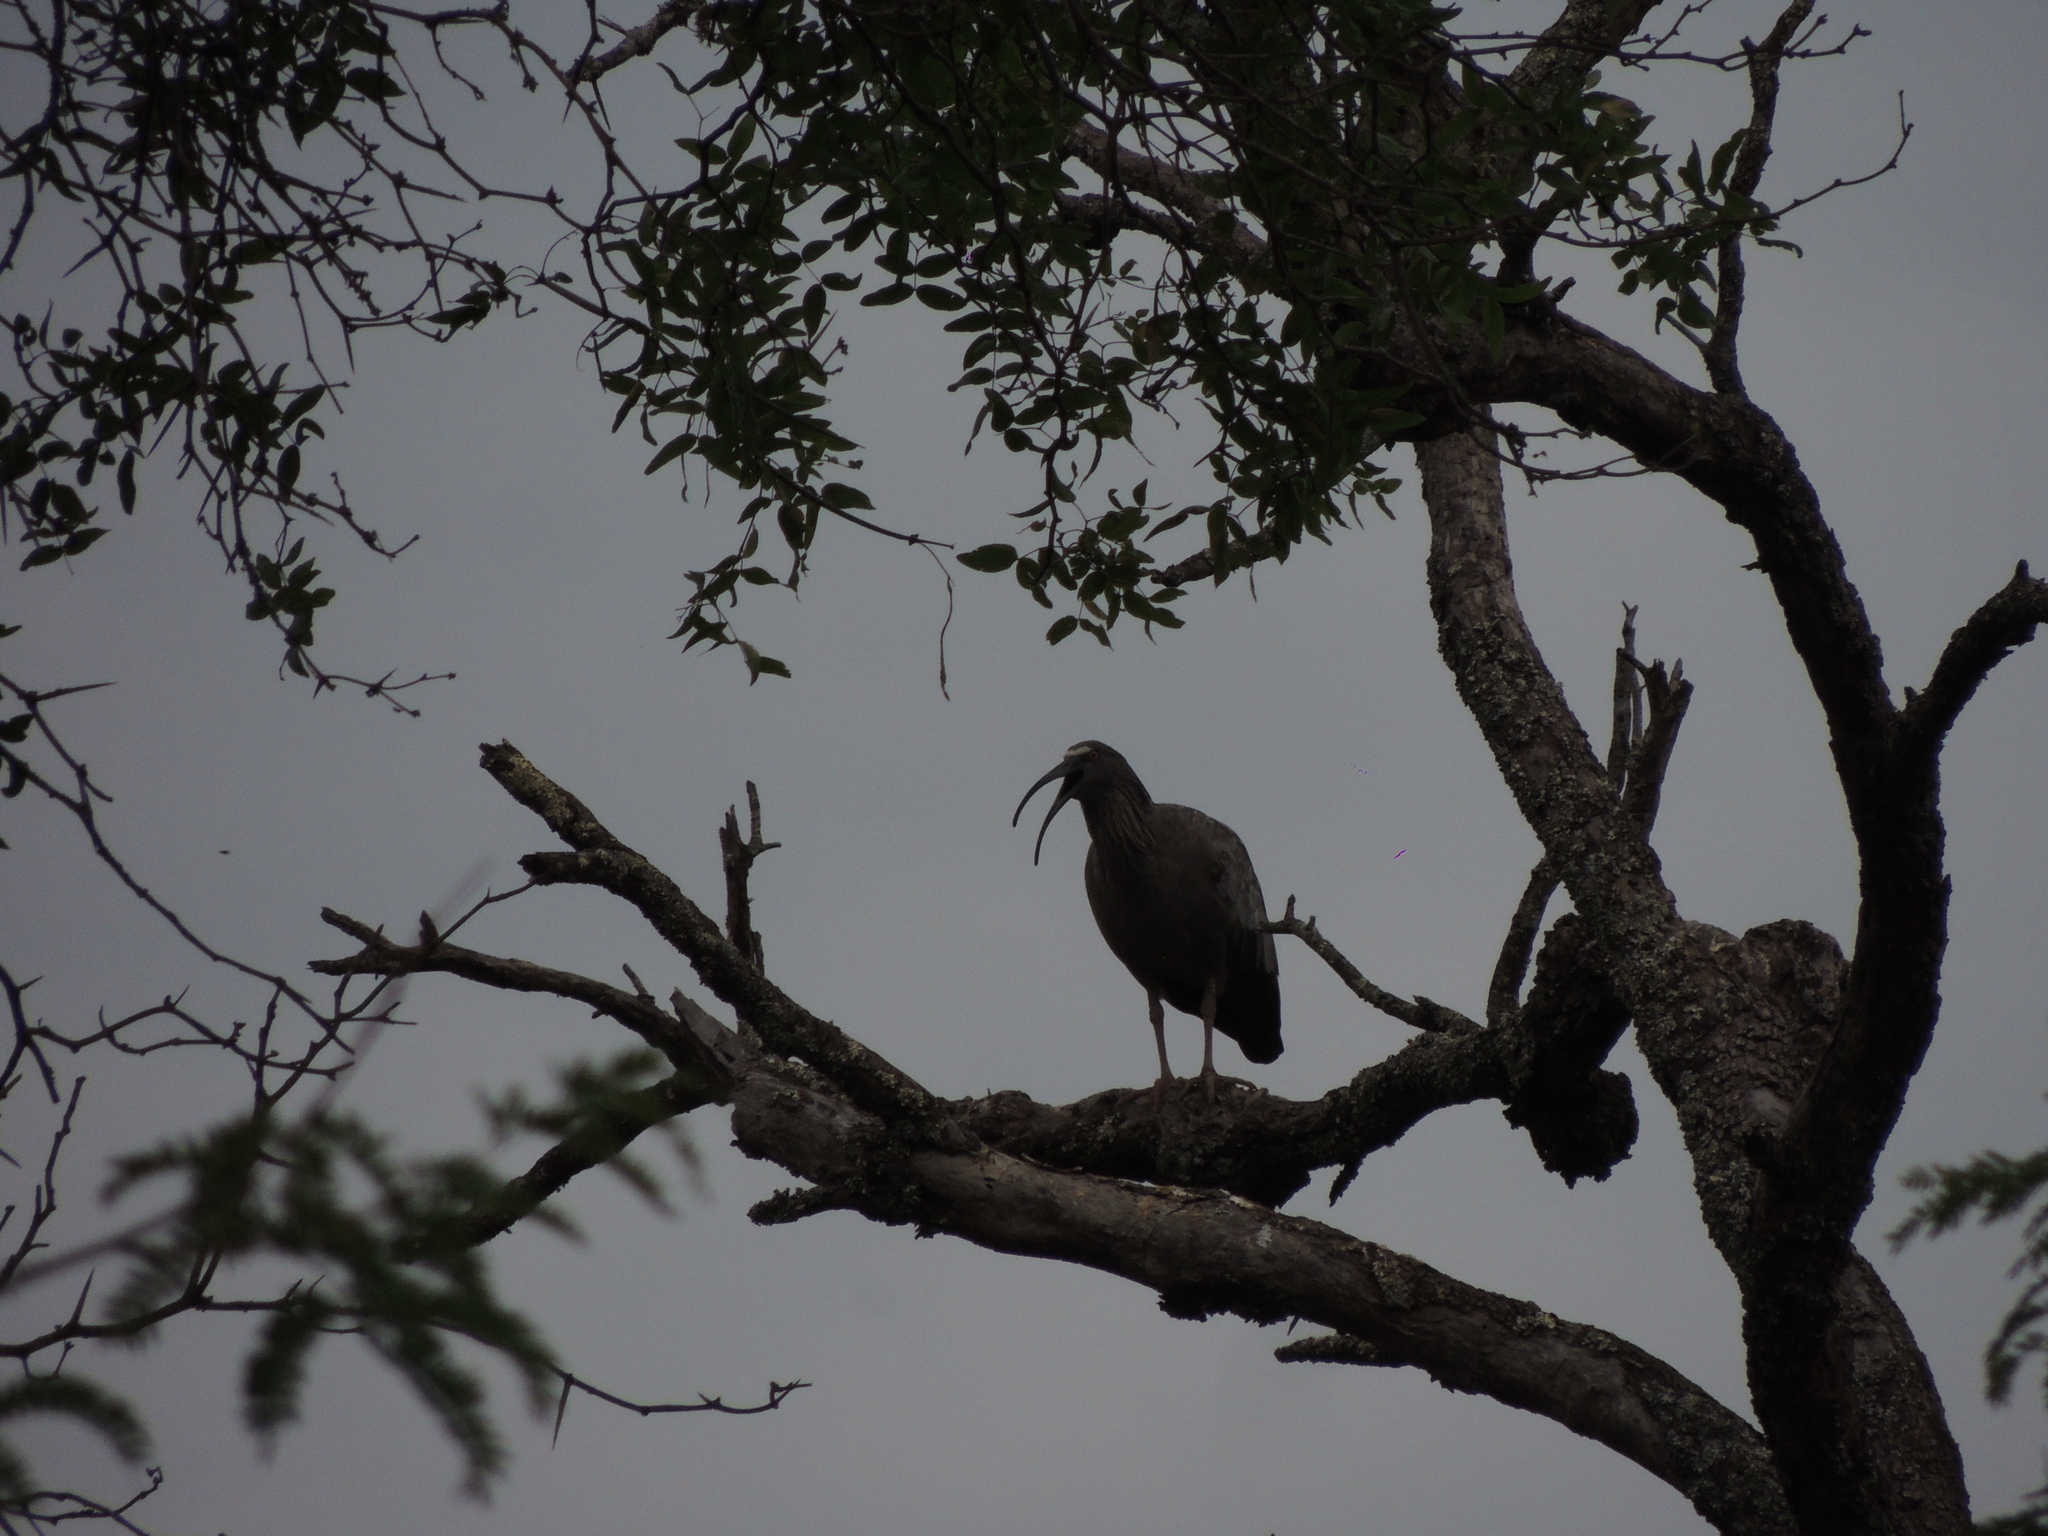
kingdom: Animalia
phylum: Chordata
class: Aves
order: Pelecaniformes
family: Threskiornithidae
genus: Theristicus
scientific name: Theristicus caerulescens
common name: Plumbeous ibis
